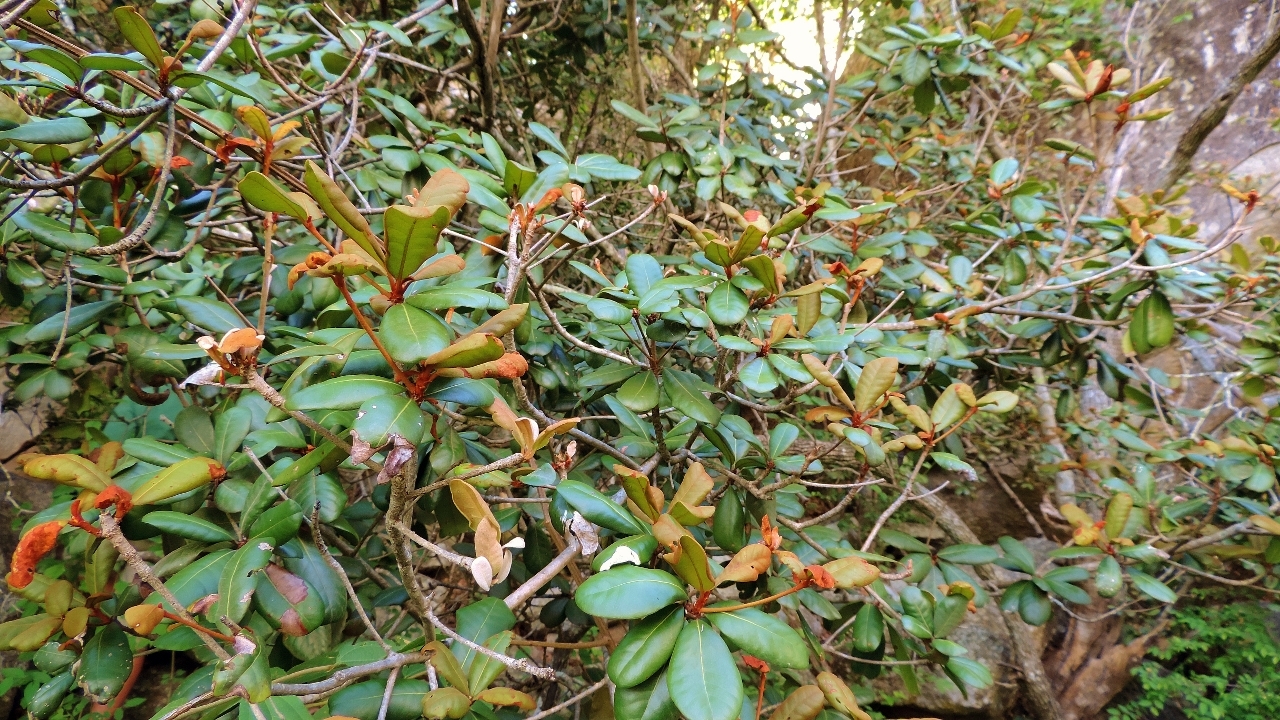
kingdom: Plantae
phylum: Tracheophyta
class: Magnoliopsida
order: Ericales
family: Sapotaceae
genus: Vitellariopsis
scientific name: Vitellariopsis ferruginea
